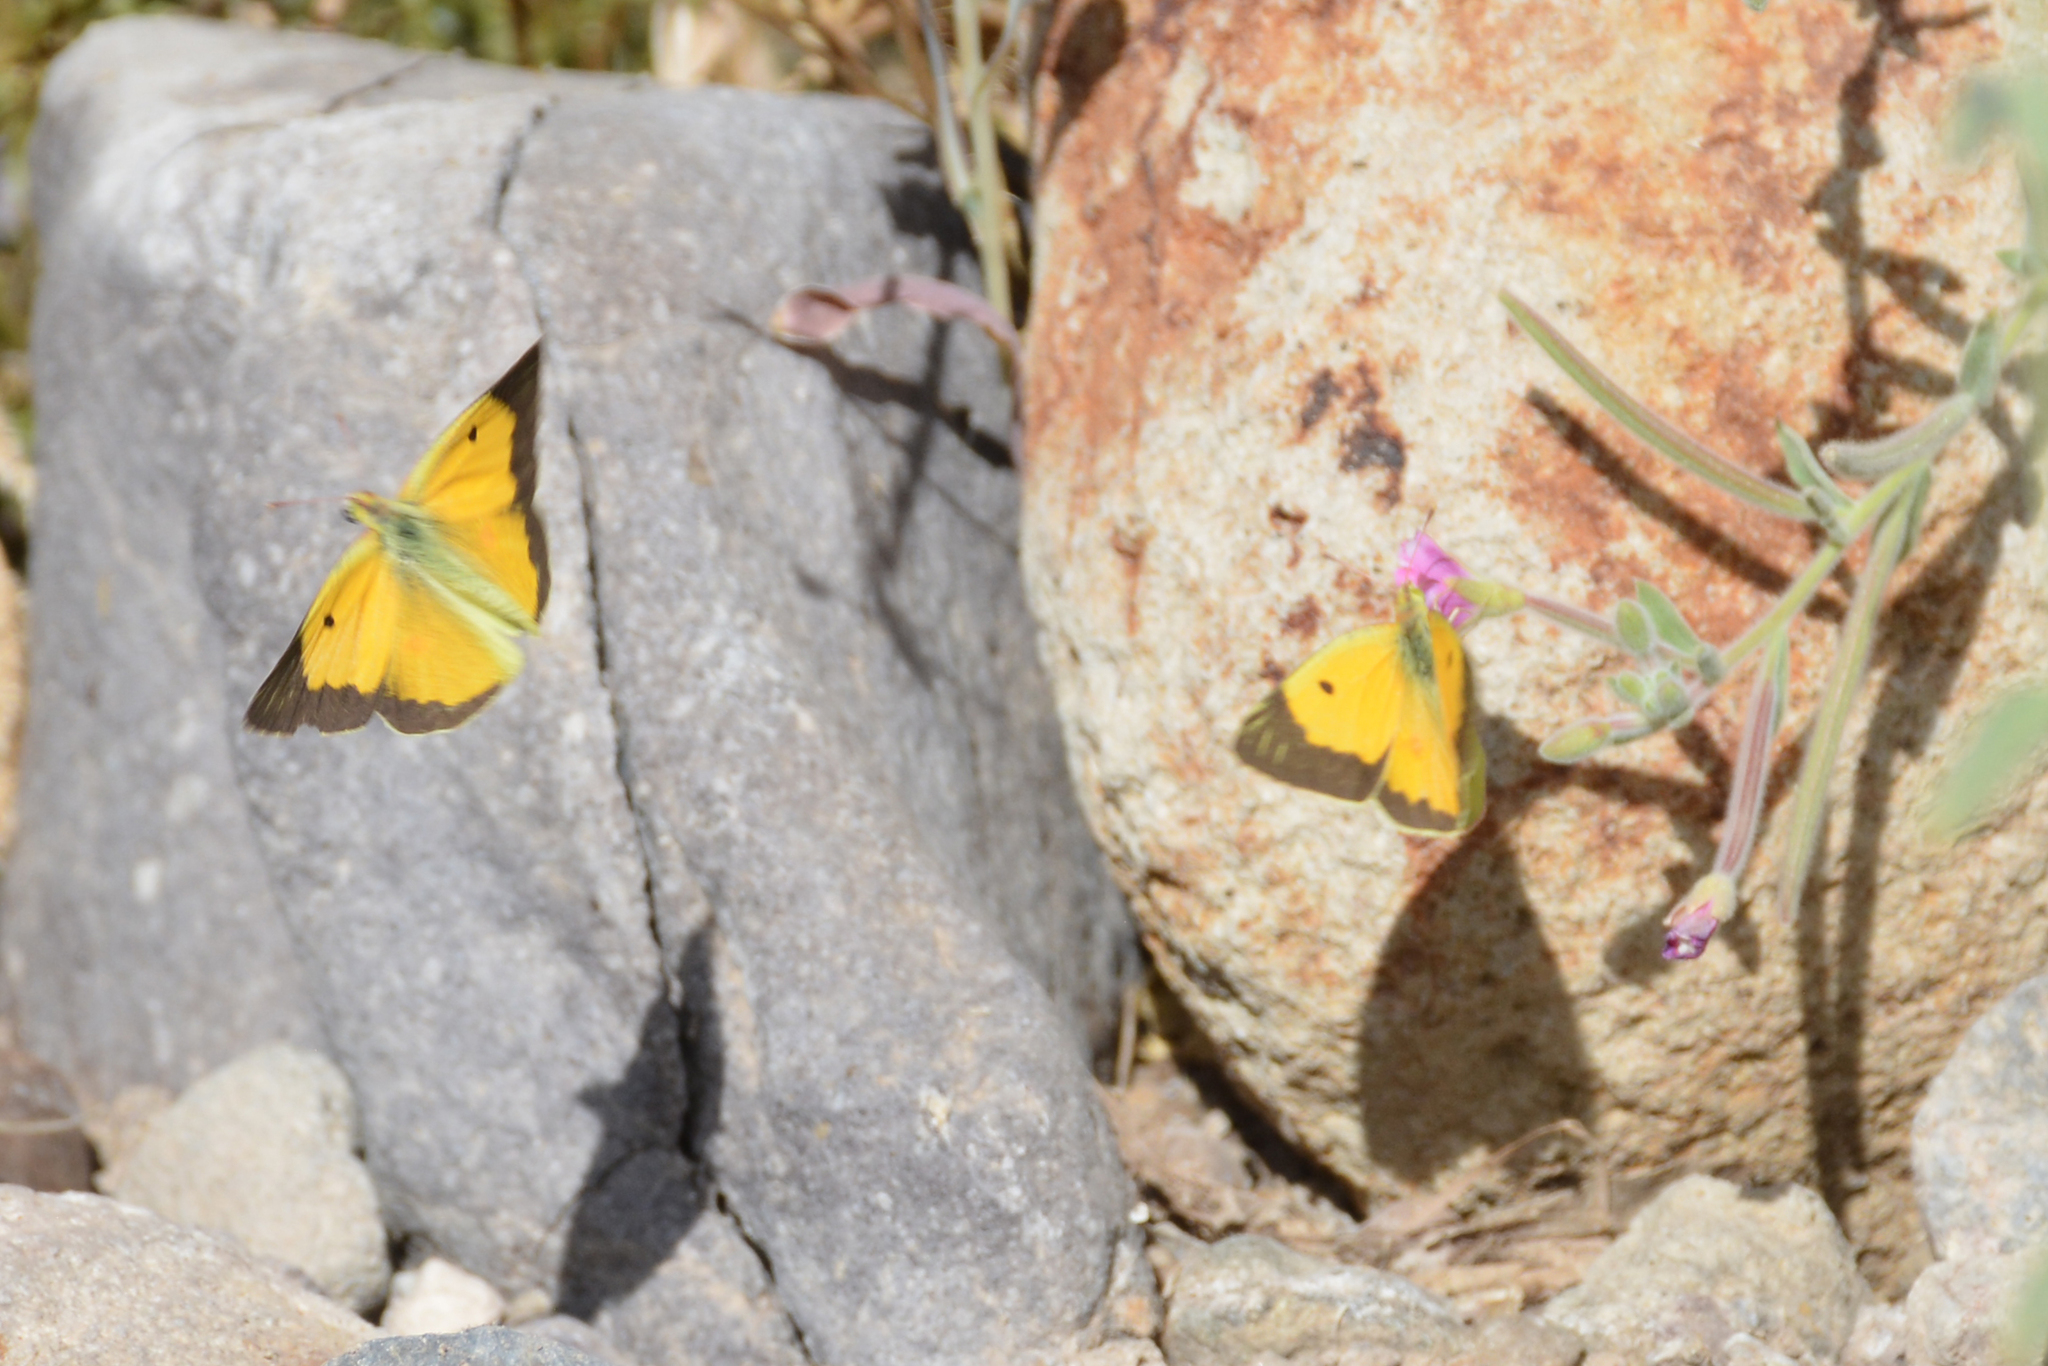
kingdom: Animalia
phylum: Arthropoda
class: Insecta
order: Lepidoptera
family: Pieridae
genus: Colias
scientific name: Colias croceus
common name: Clouded yellow
